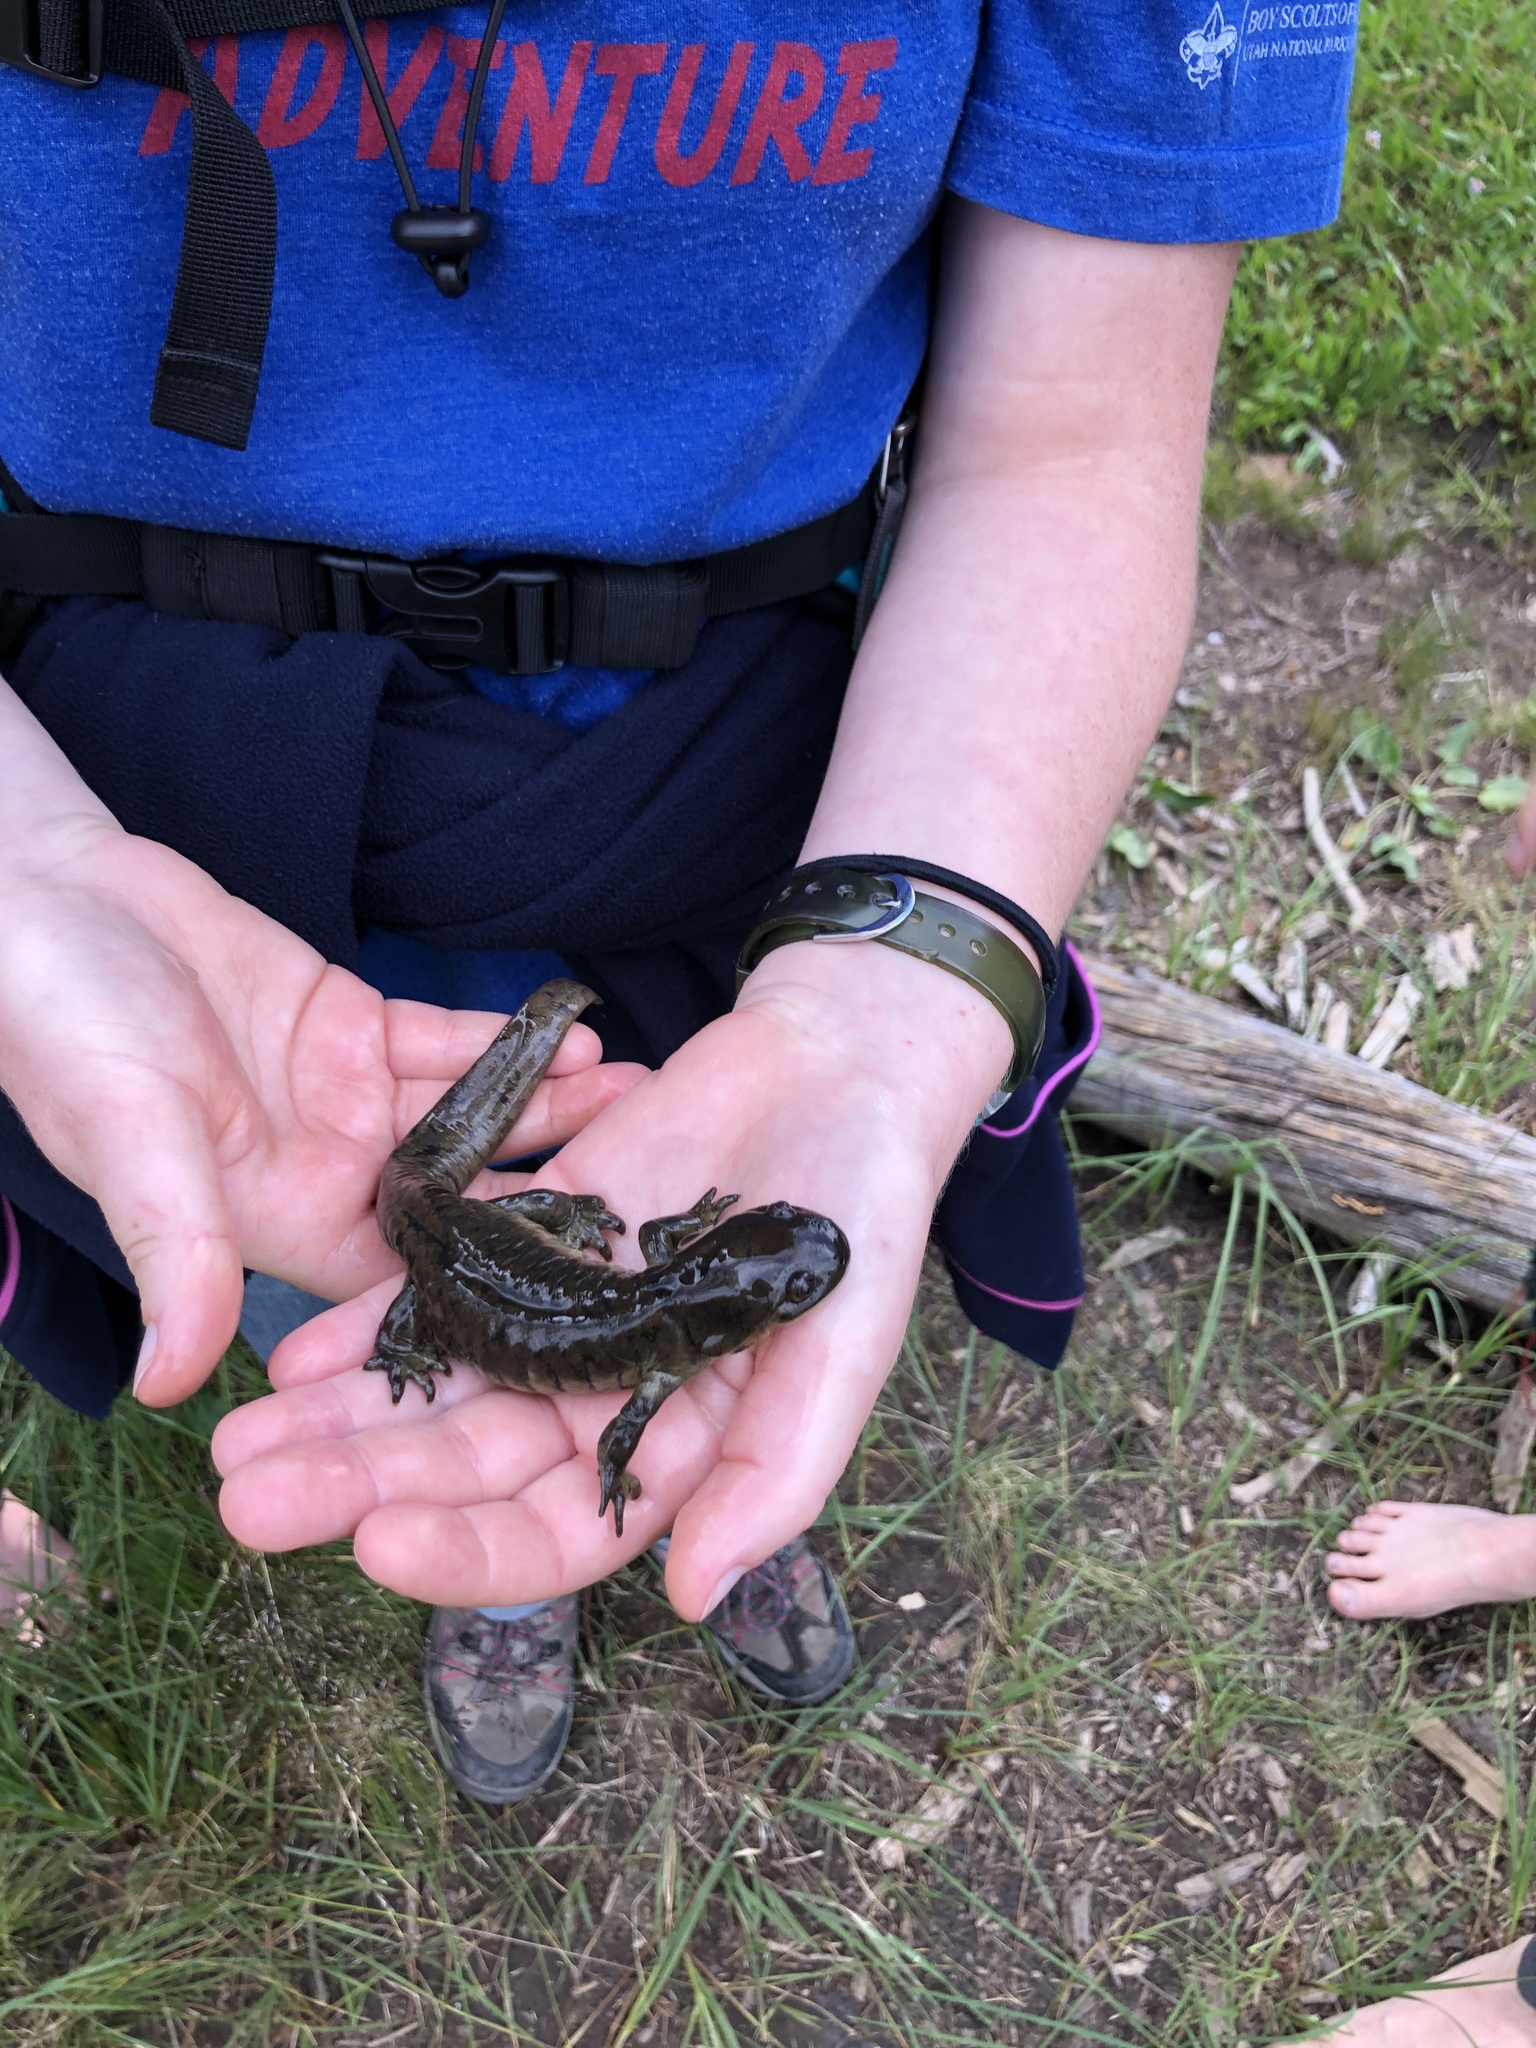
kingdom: Animalia
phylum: Chordata
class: Amphibia
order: Caudata
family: Ambystomatidae
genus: Ambystoma
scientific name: Ambystoma mavortium
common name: Western tiger salamander
